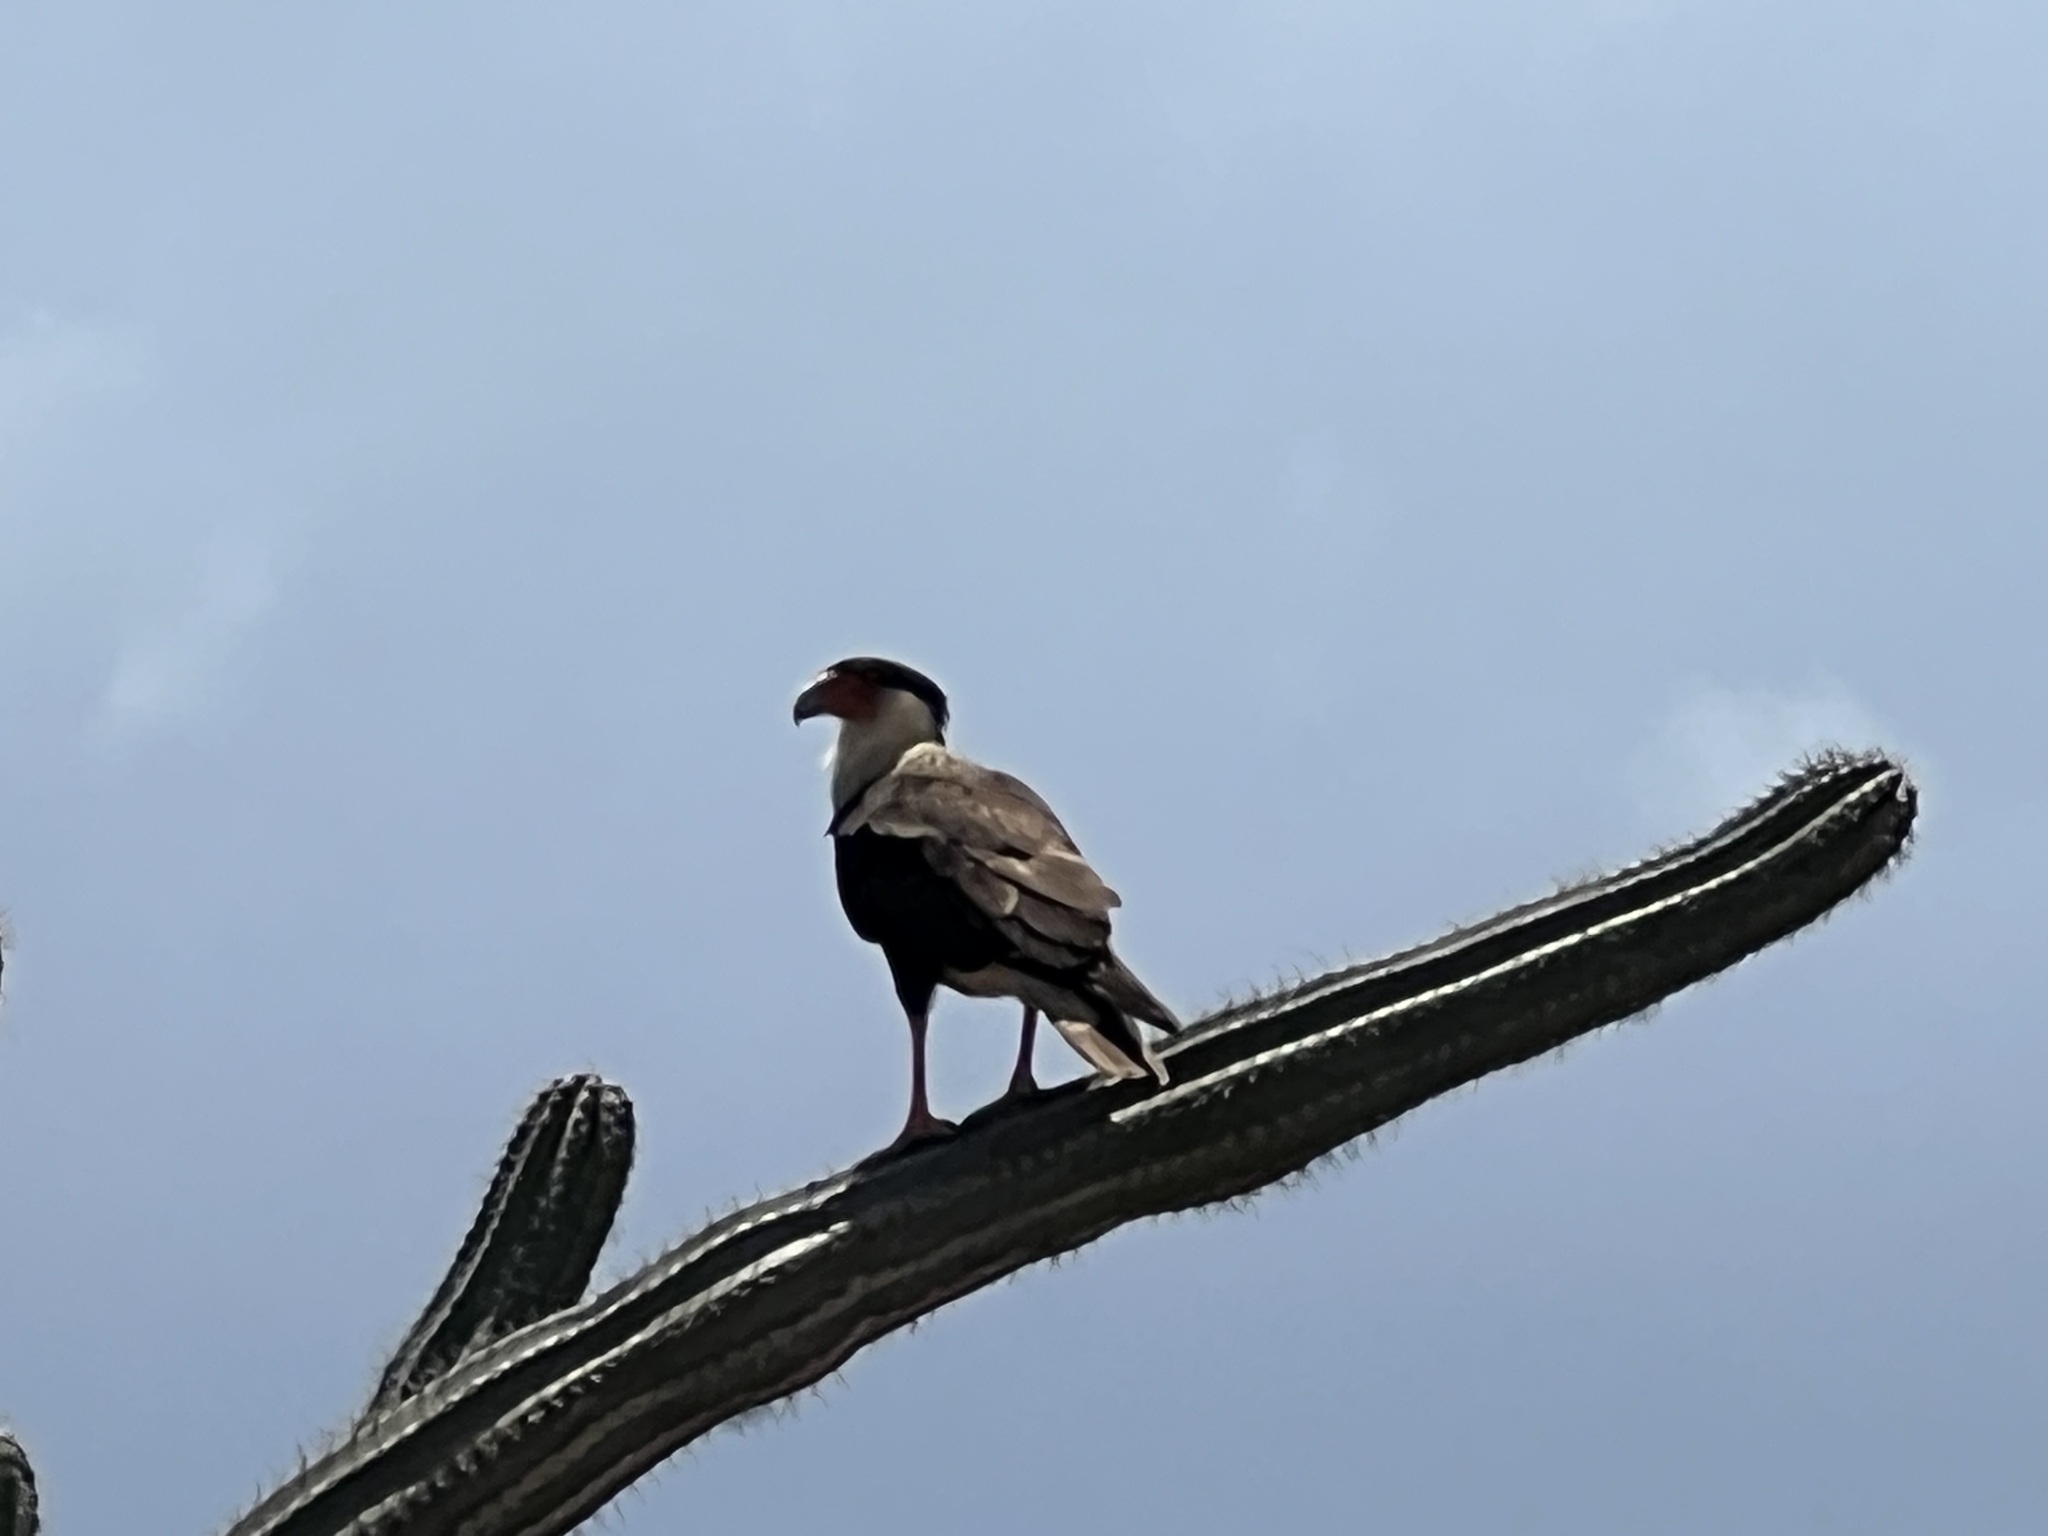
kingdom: Animalia
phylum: Chordata
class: Aves
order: Falconiformes
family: Falconidae
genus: Caracara
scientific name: Caracara plancus
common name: Southern caracara
